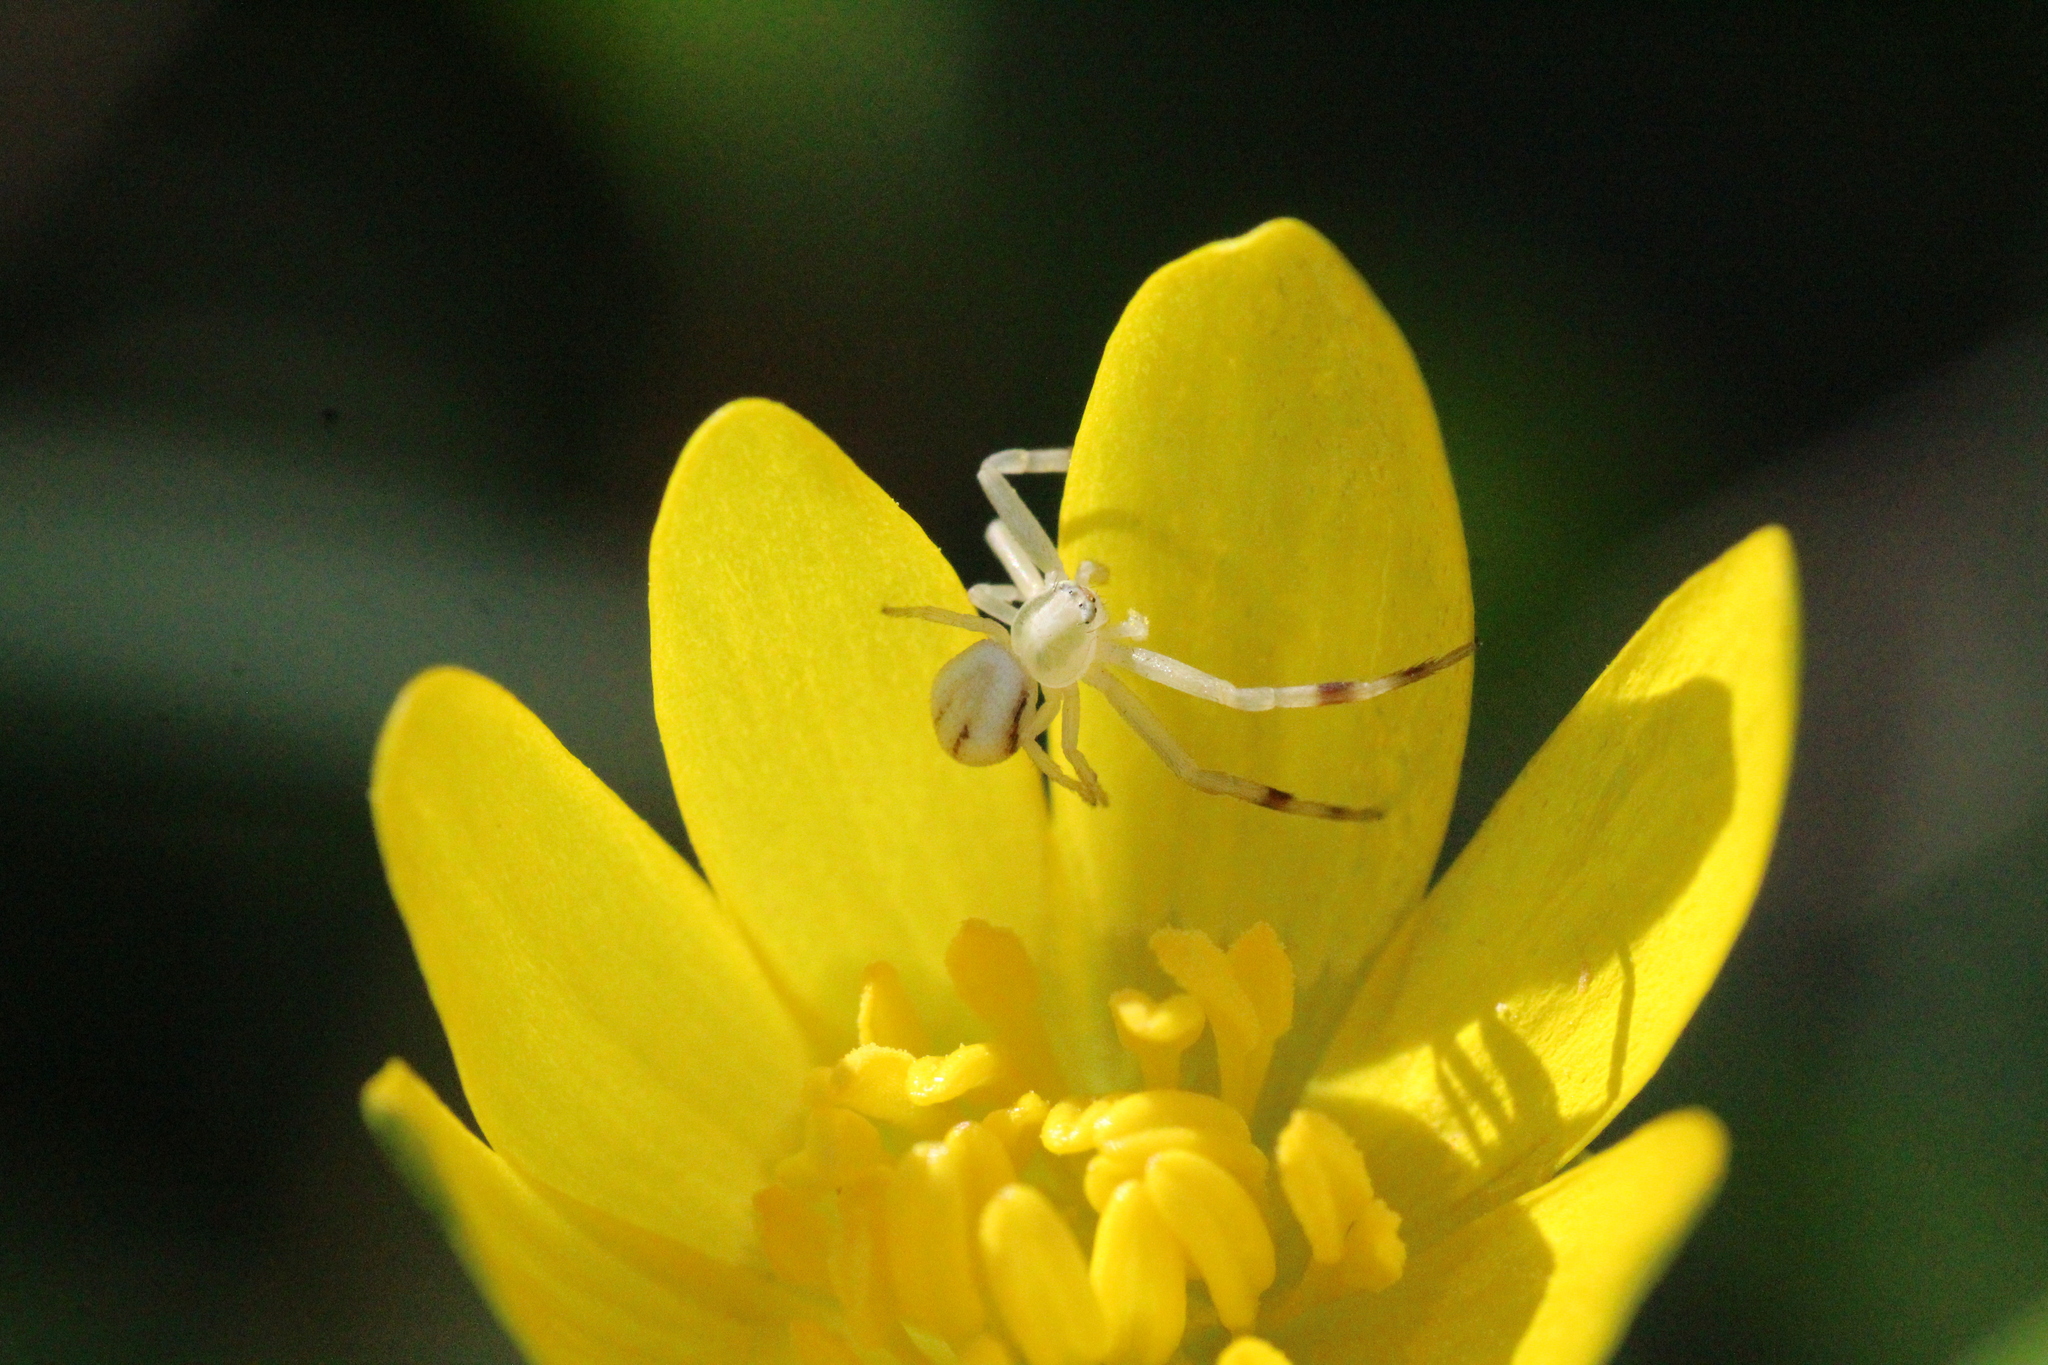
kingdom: Animalia
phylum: Arthropoda
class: Arachnida
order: Araneae
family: Thomisidae
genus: Misumena
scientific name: Misumena vatia
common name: Goldenrod crab spider
